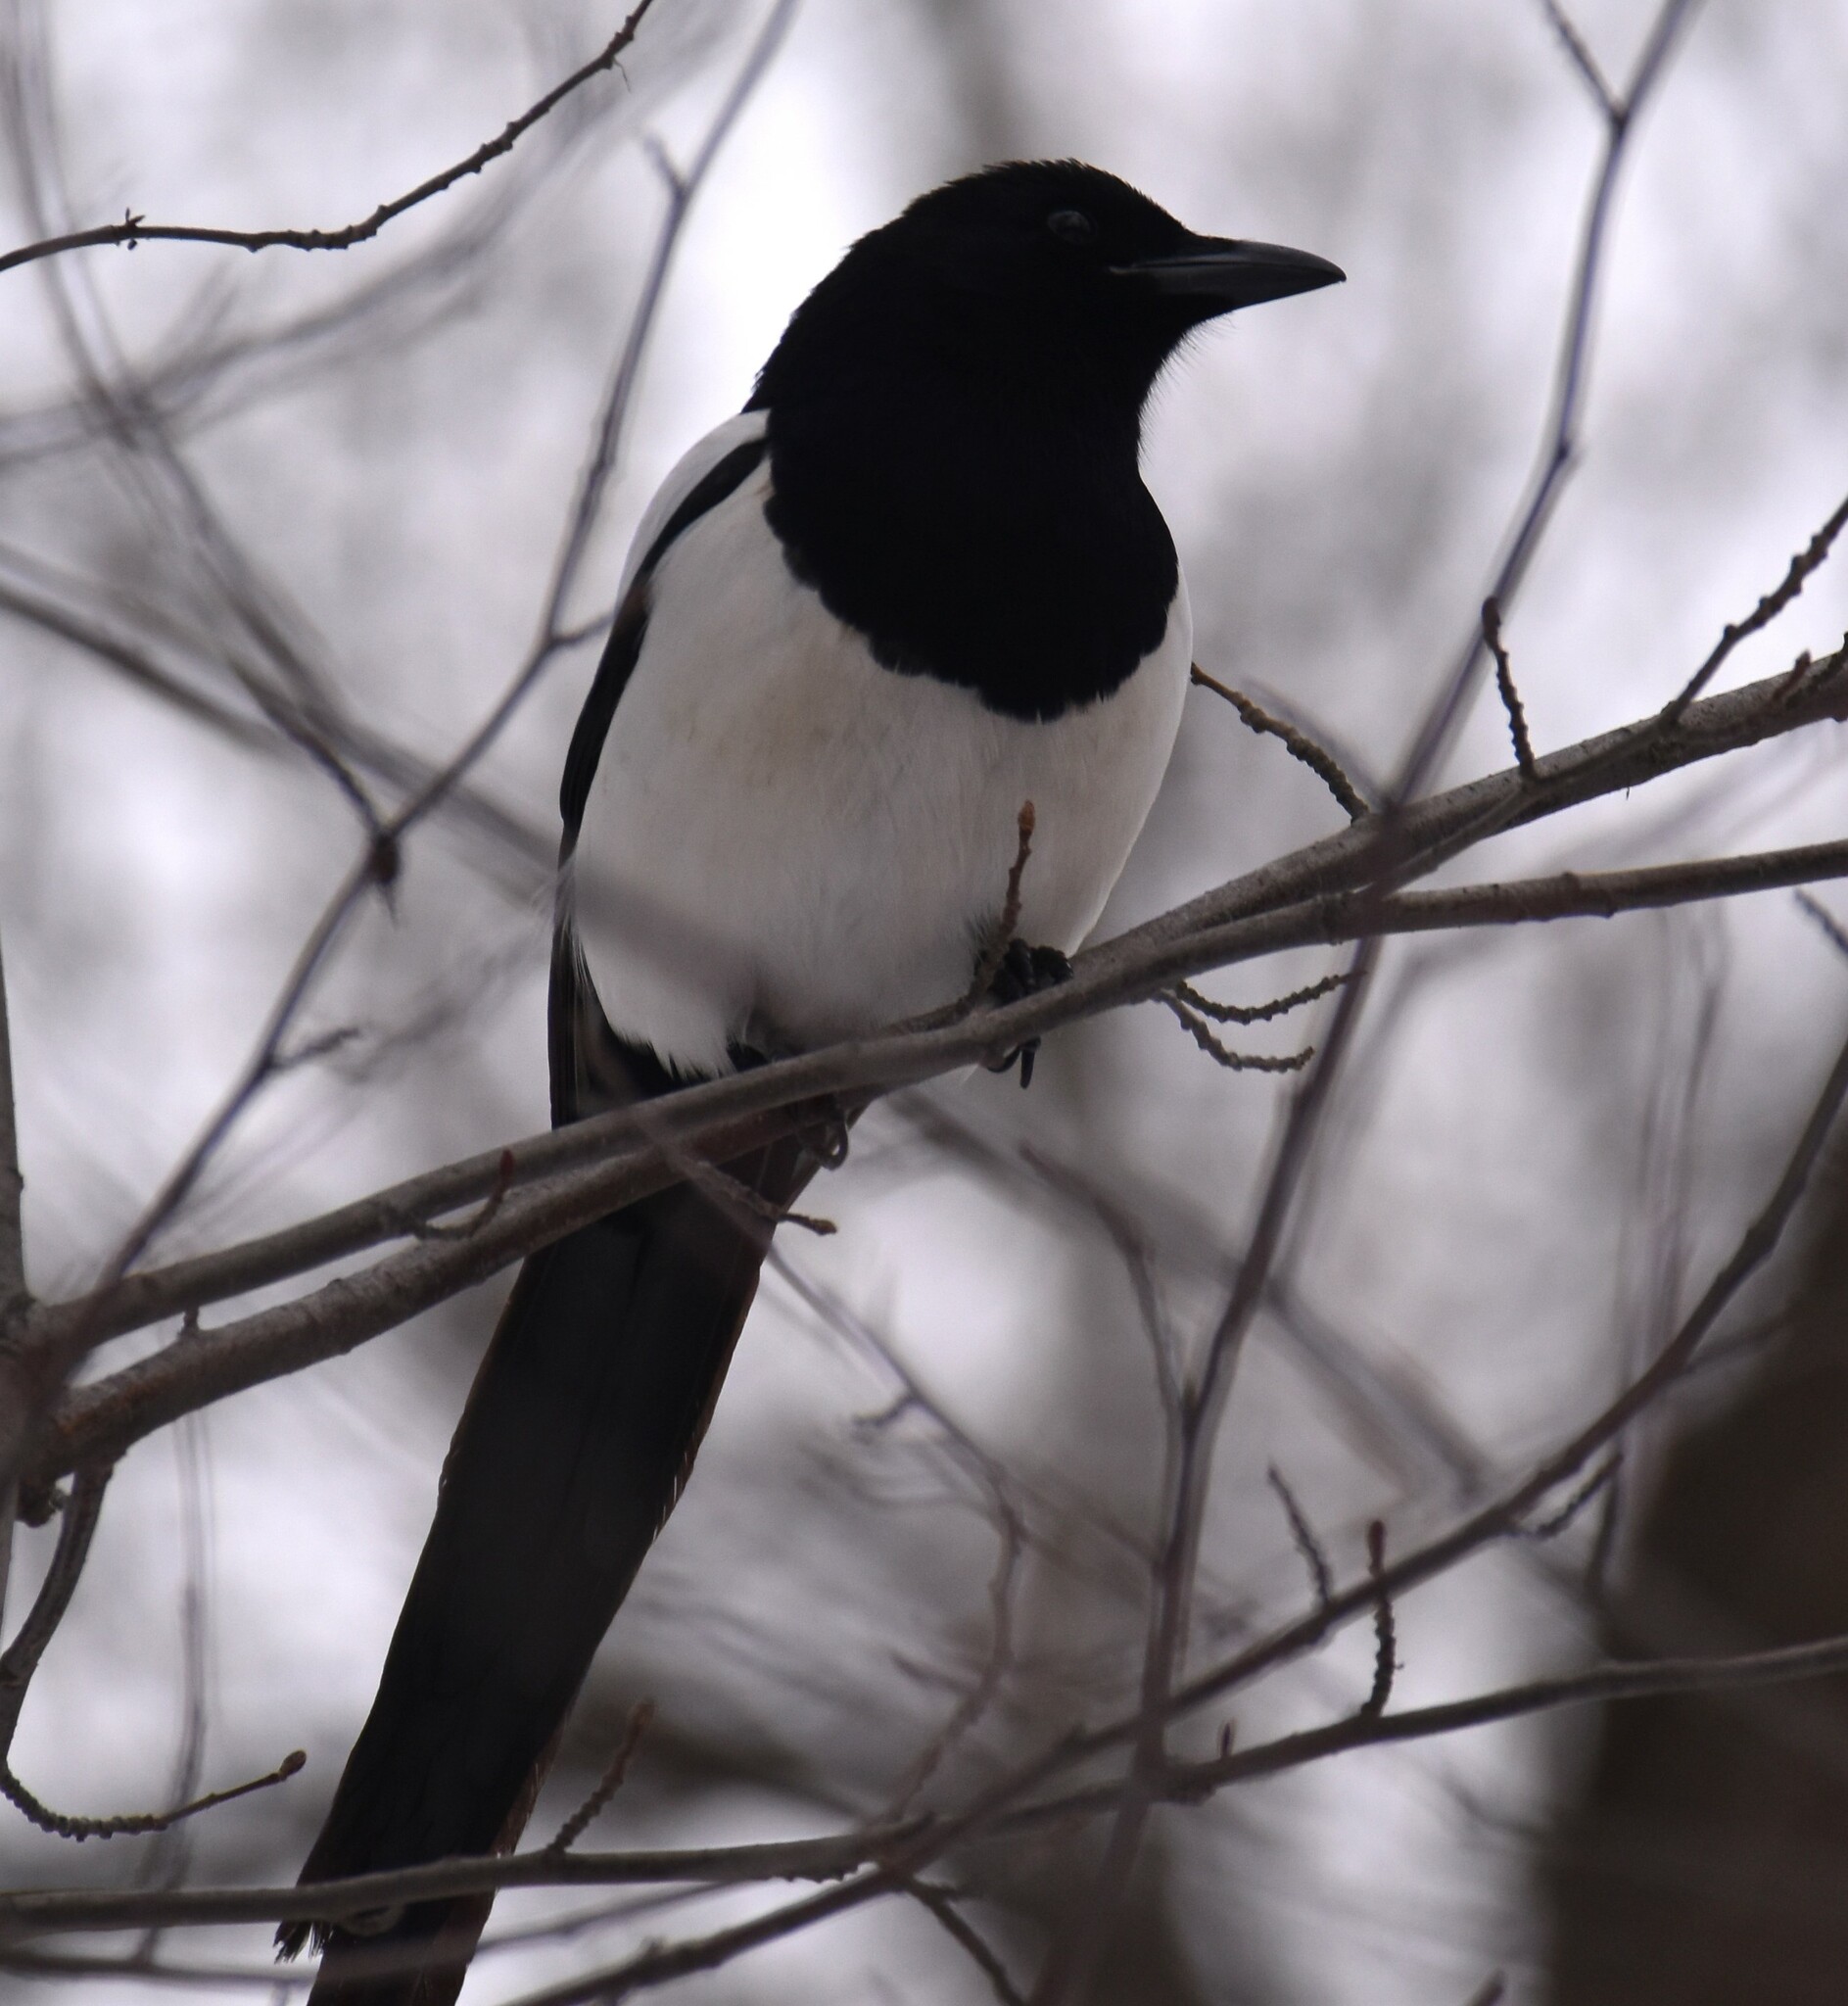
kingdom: Animalia
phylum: Chordata
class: Aves
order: Passeriformes
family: Corvidae
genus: Pica
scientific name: Pica hudsonia
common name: Black-billed magpie
